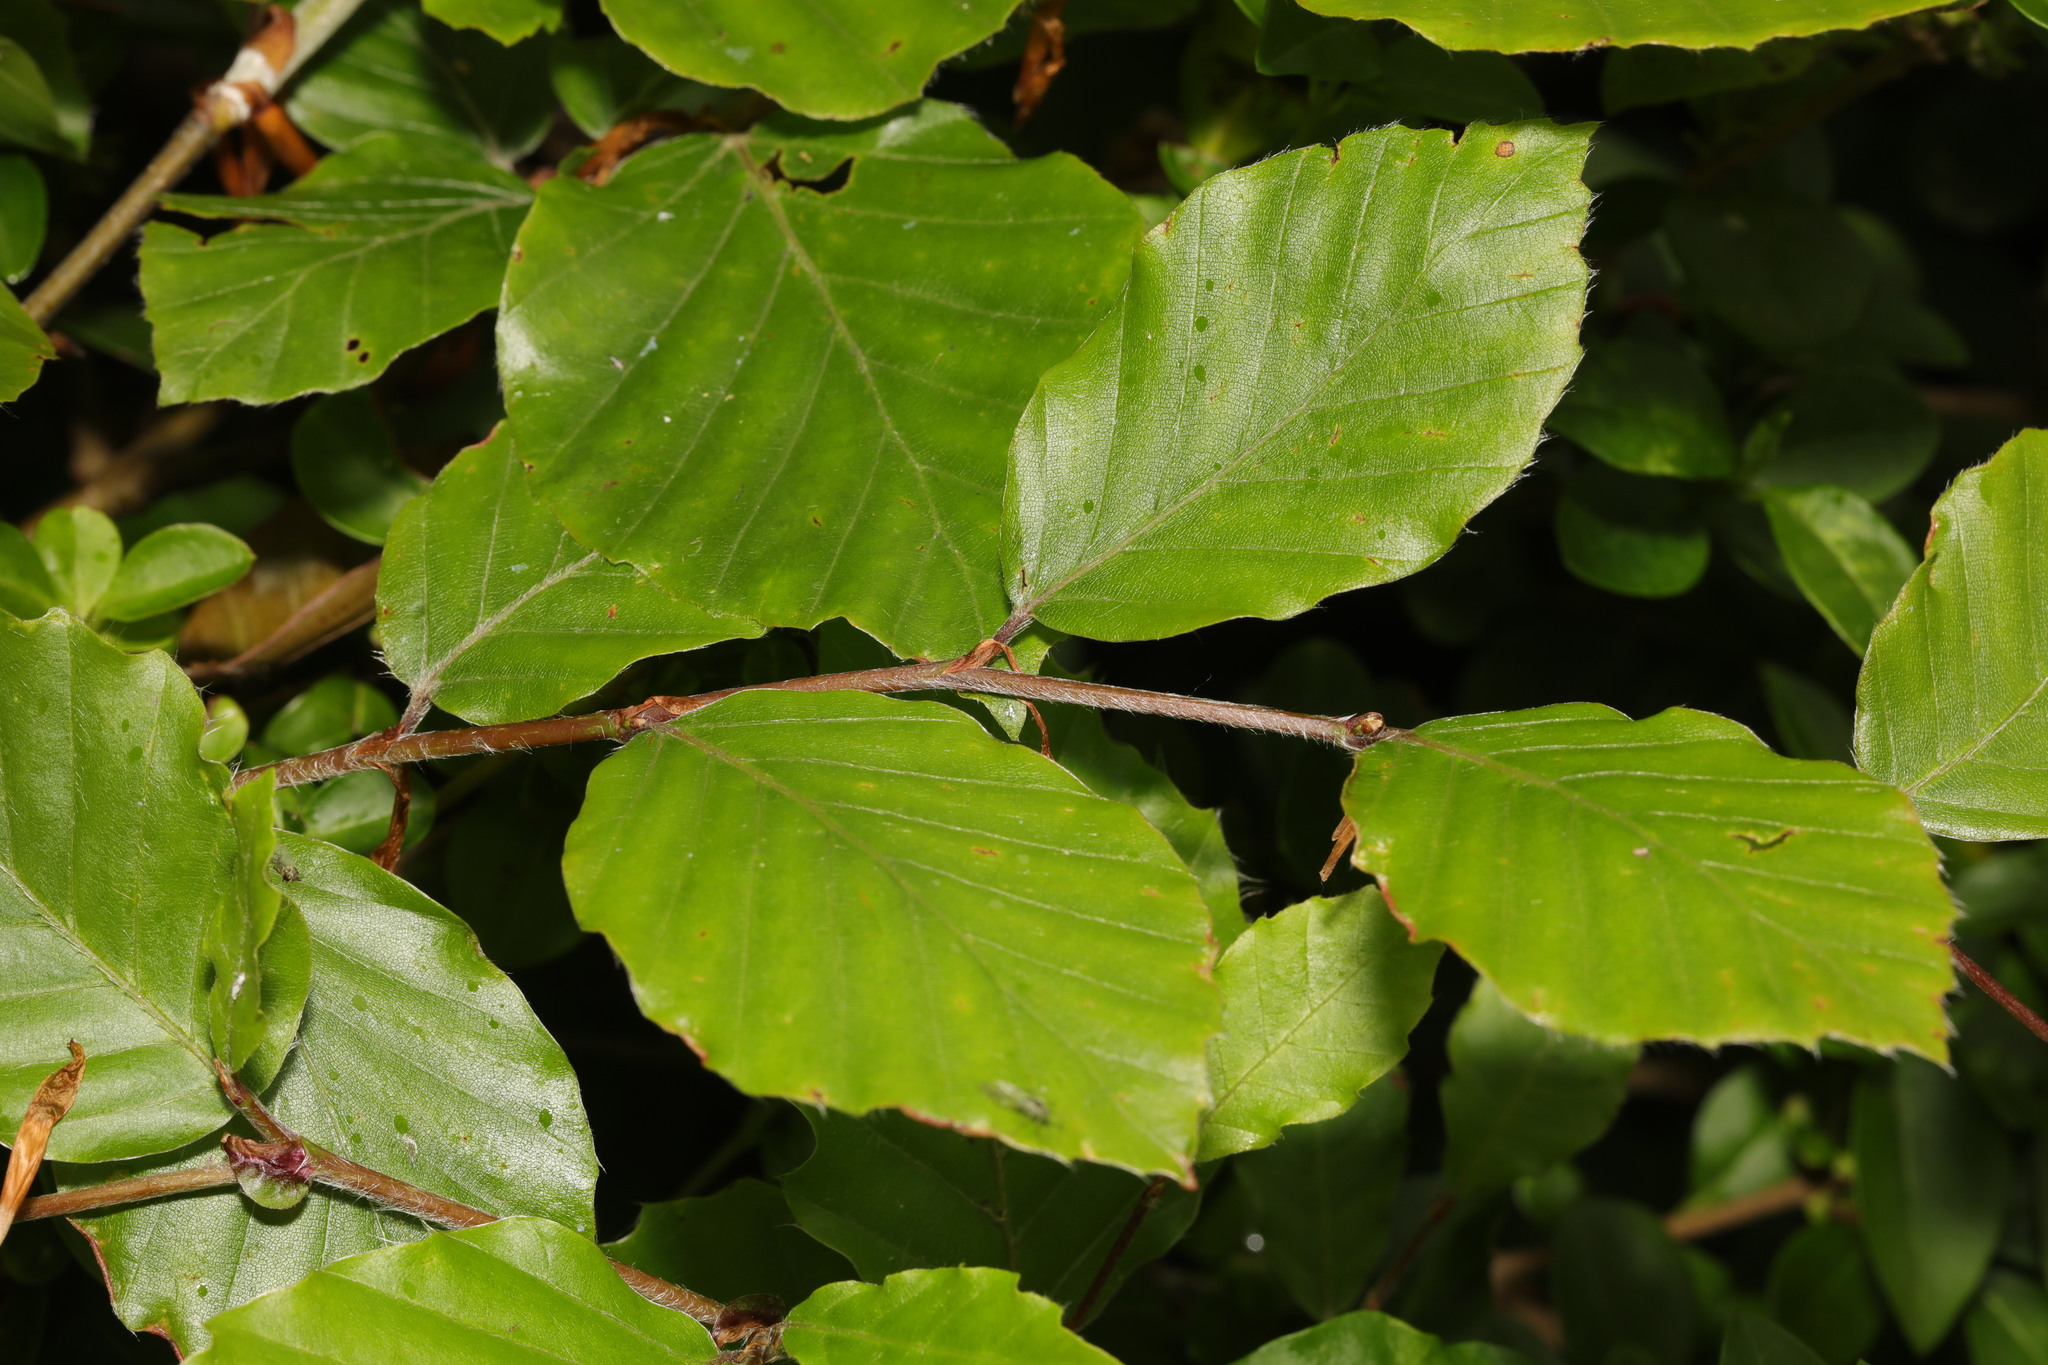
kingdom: Plantae
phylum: Tracheophyta
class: Magnoliopsida
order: Fagales
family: Fagaceae
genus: Fagus
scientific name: Fagus sylvatica
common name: Beech
